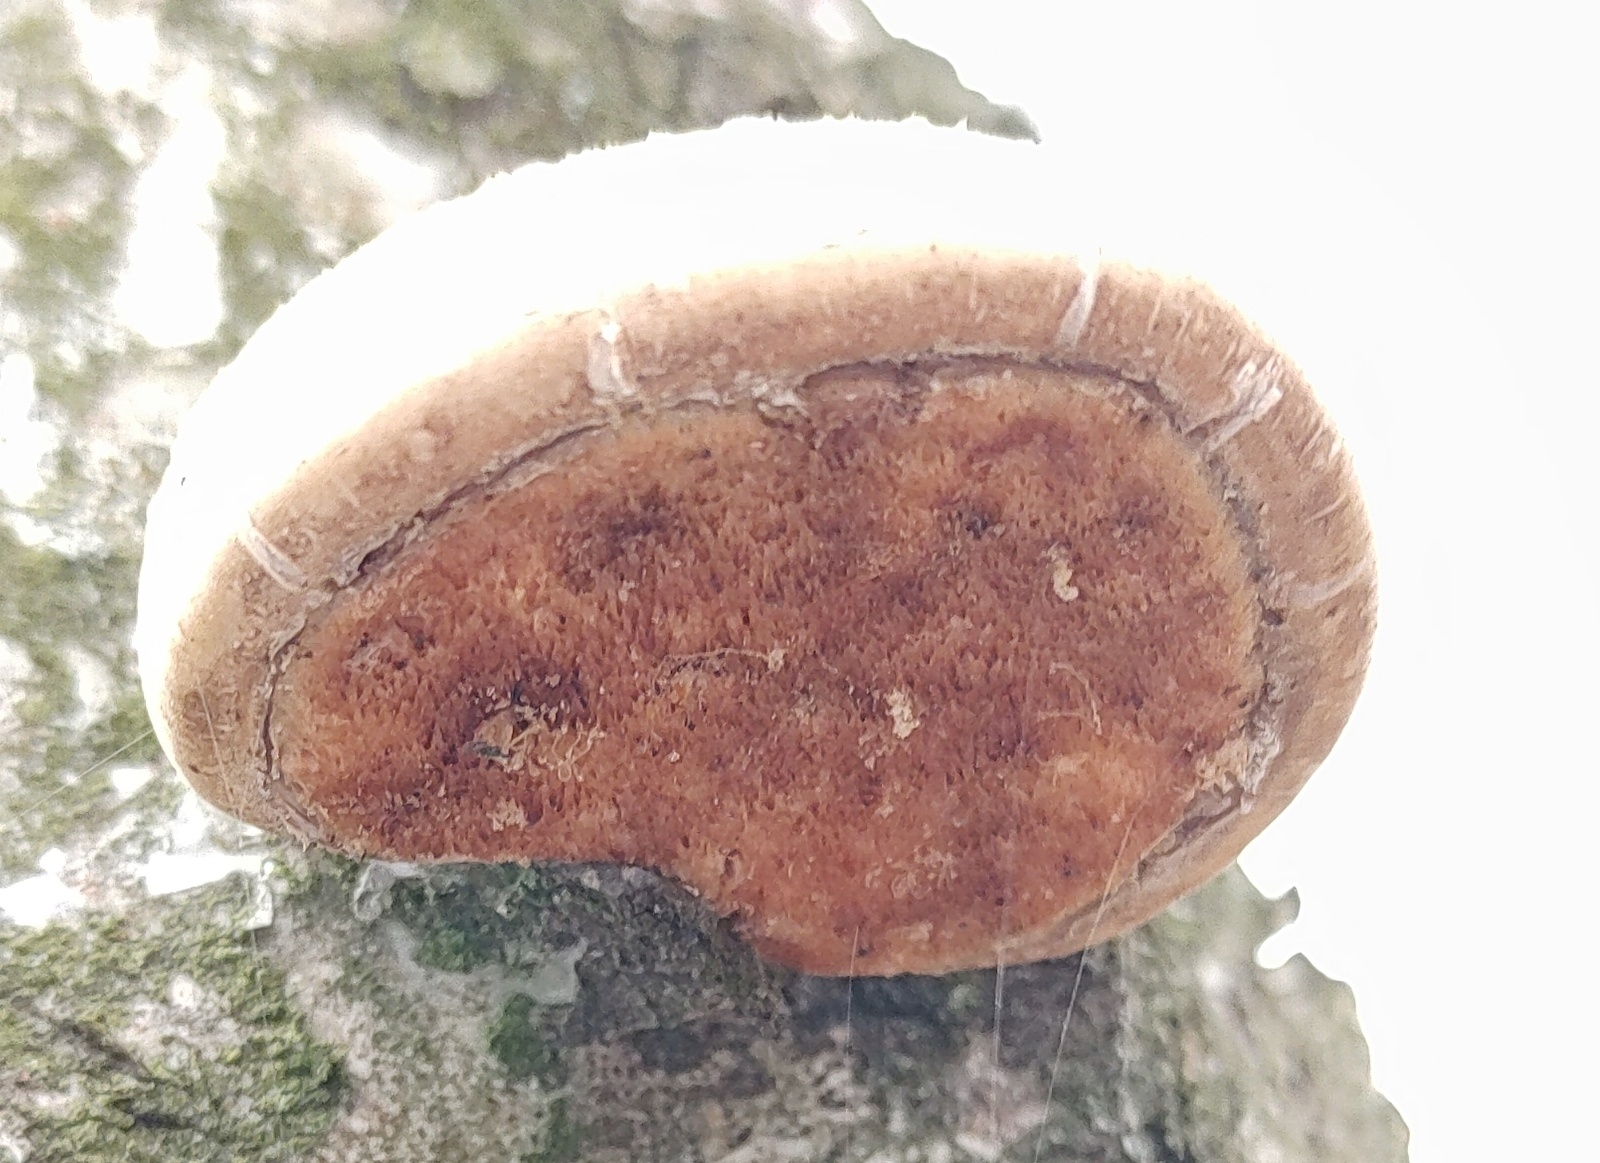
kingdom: Fungi
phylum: Basidiomycota
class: Agaricomycetes
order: Polyporales
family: Fomitopsidaceae
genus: Fomitopsis
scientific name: Fomitopsis betulina
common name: Birch polypore
